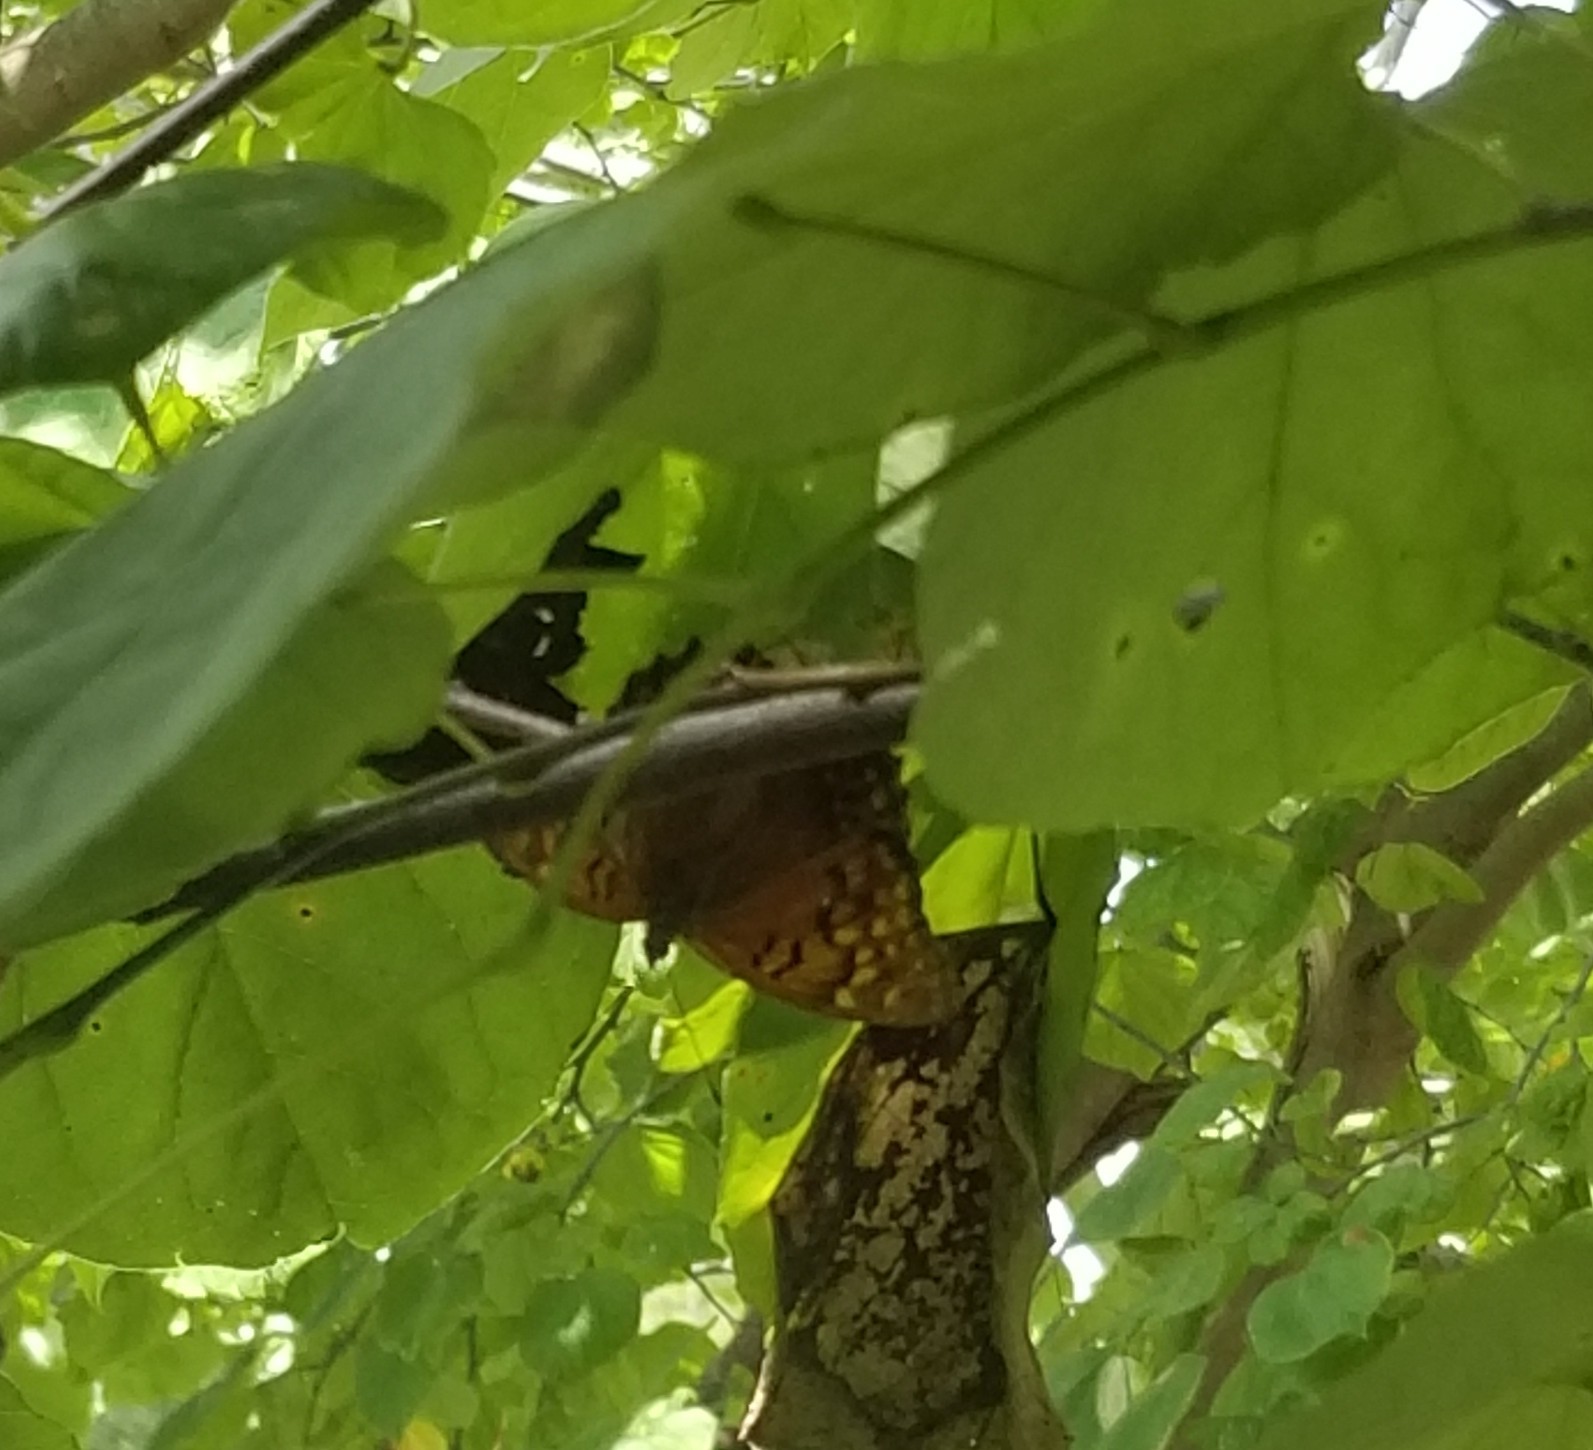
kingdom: Animalia
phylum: Arthropoda
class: Insecta
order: Lepidoptera
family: Nymphalidae
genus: Asterocampa
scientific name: Asterocampa clyton
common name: Tawny emperor
